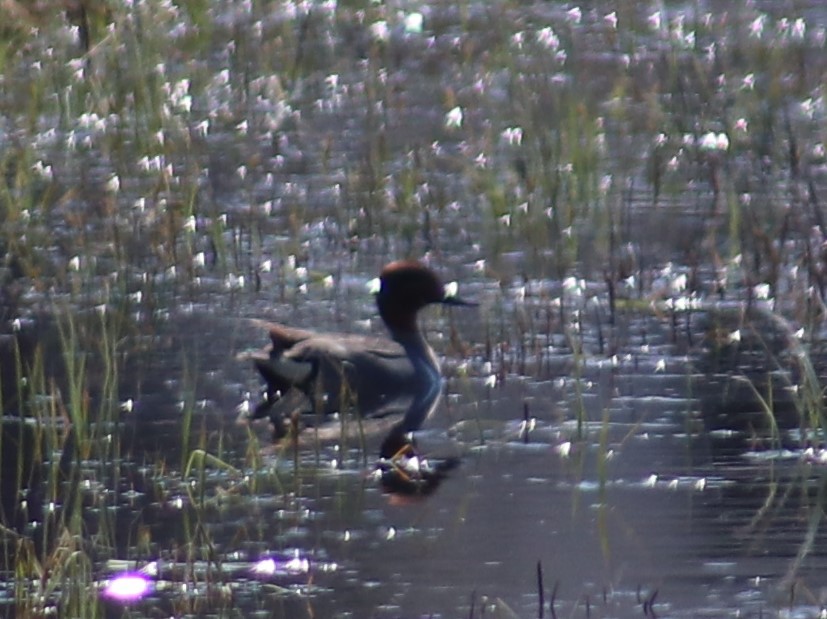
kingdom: Animalia
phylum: Chordata
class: Aves
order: Anseriformes
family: Anatidae
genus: Anas
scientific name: Anas crecca
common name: Eurasian teal
